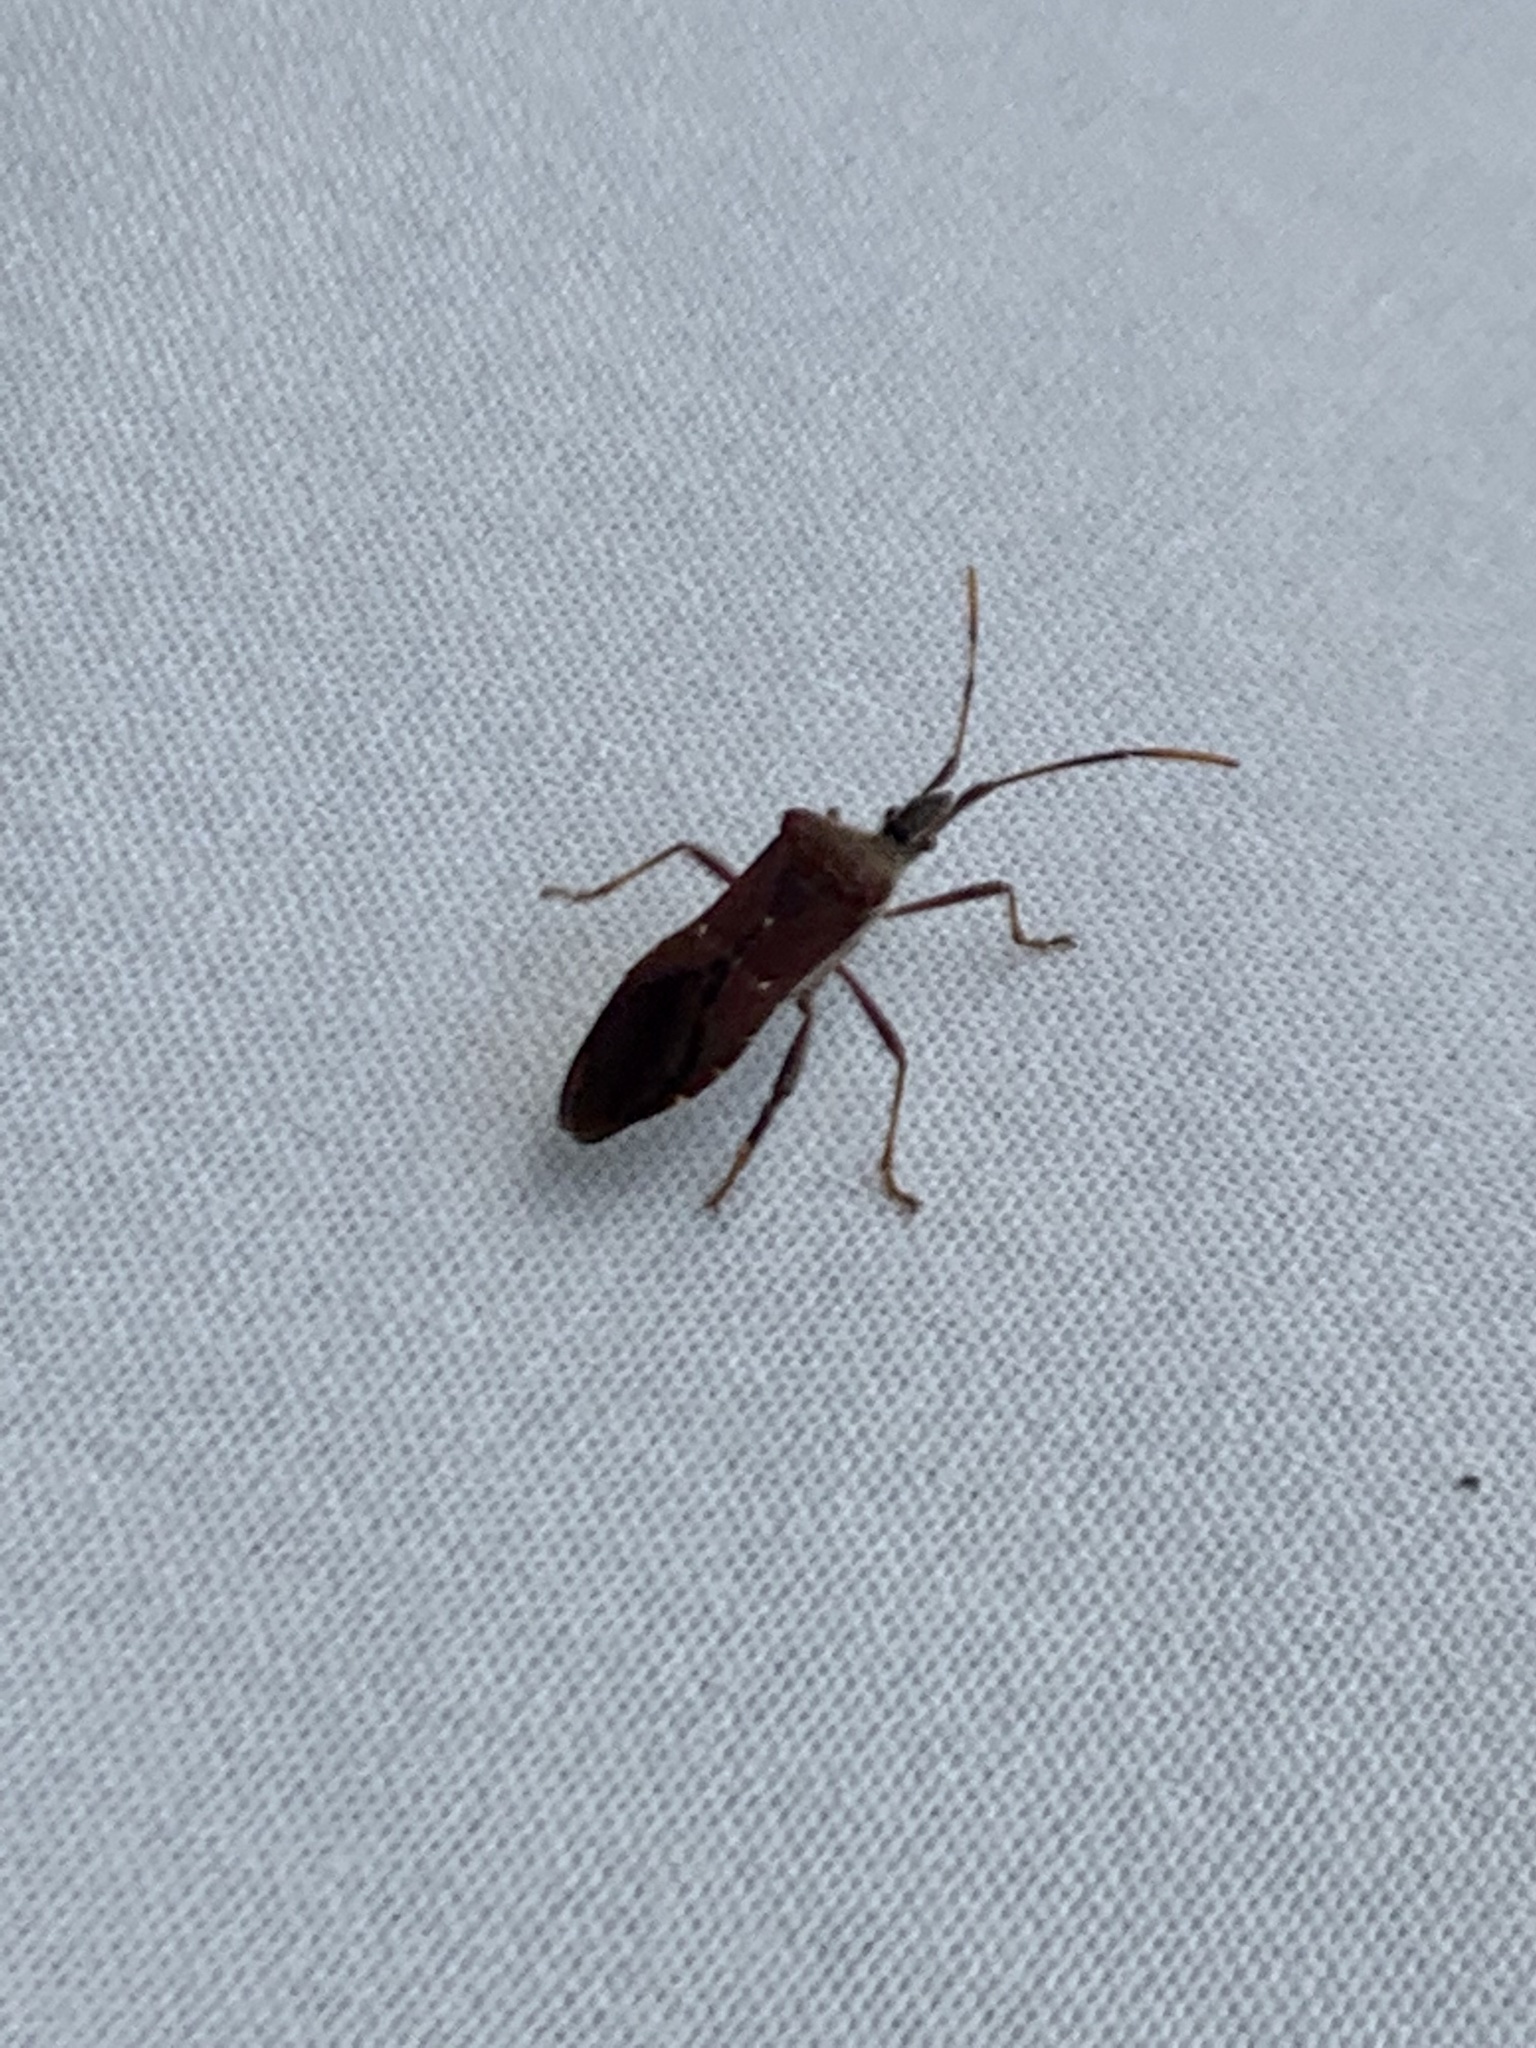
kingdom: Animalia
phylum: Arthropoda
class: Insecta
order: Hemiptera
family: Coreidae
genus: Leptoglossus
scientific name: Leptoglossus oppositus
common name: Northern leaf-footed bug
